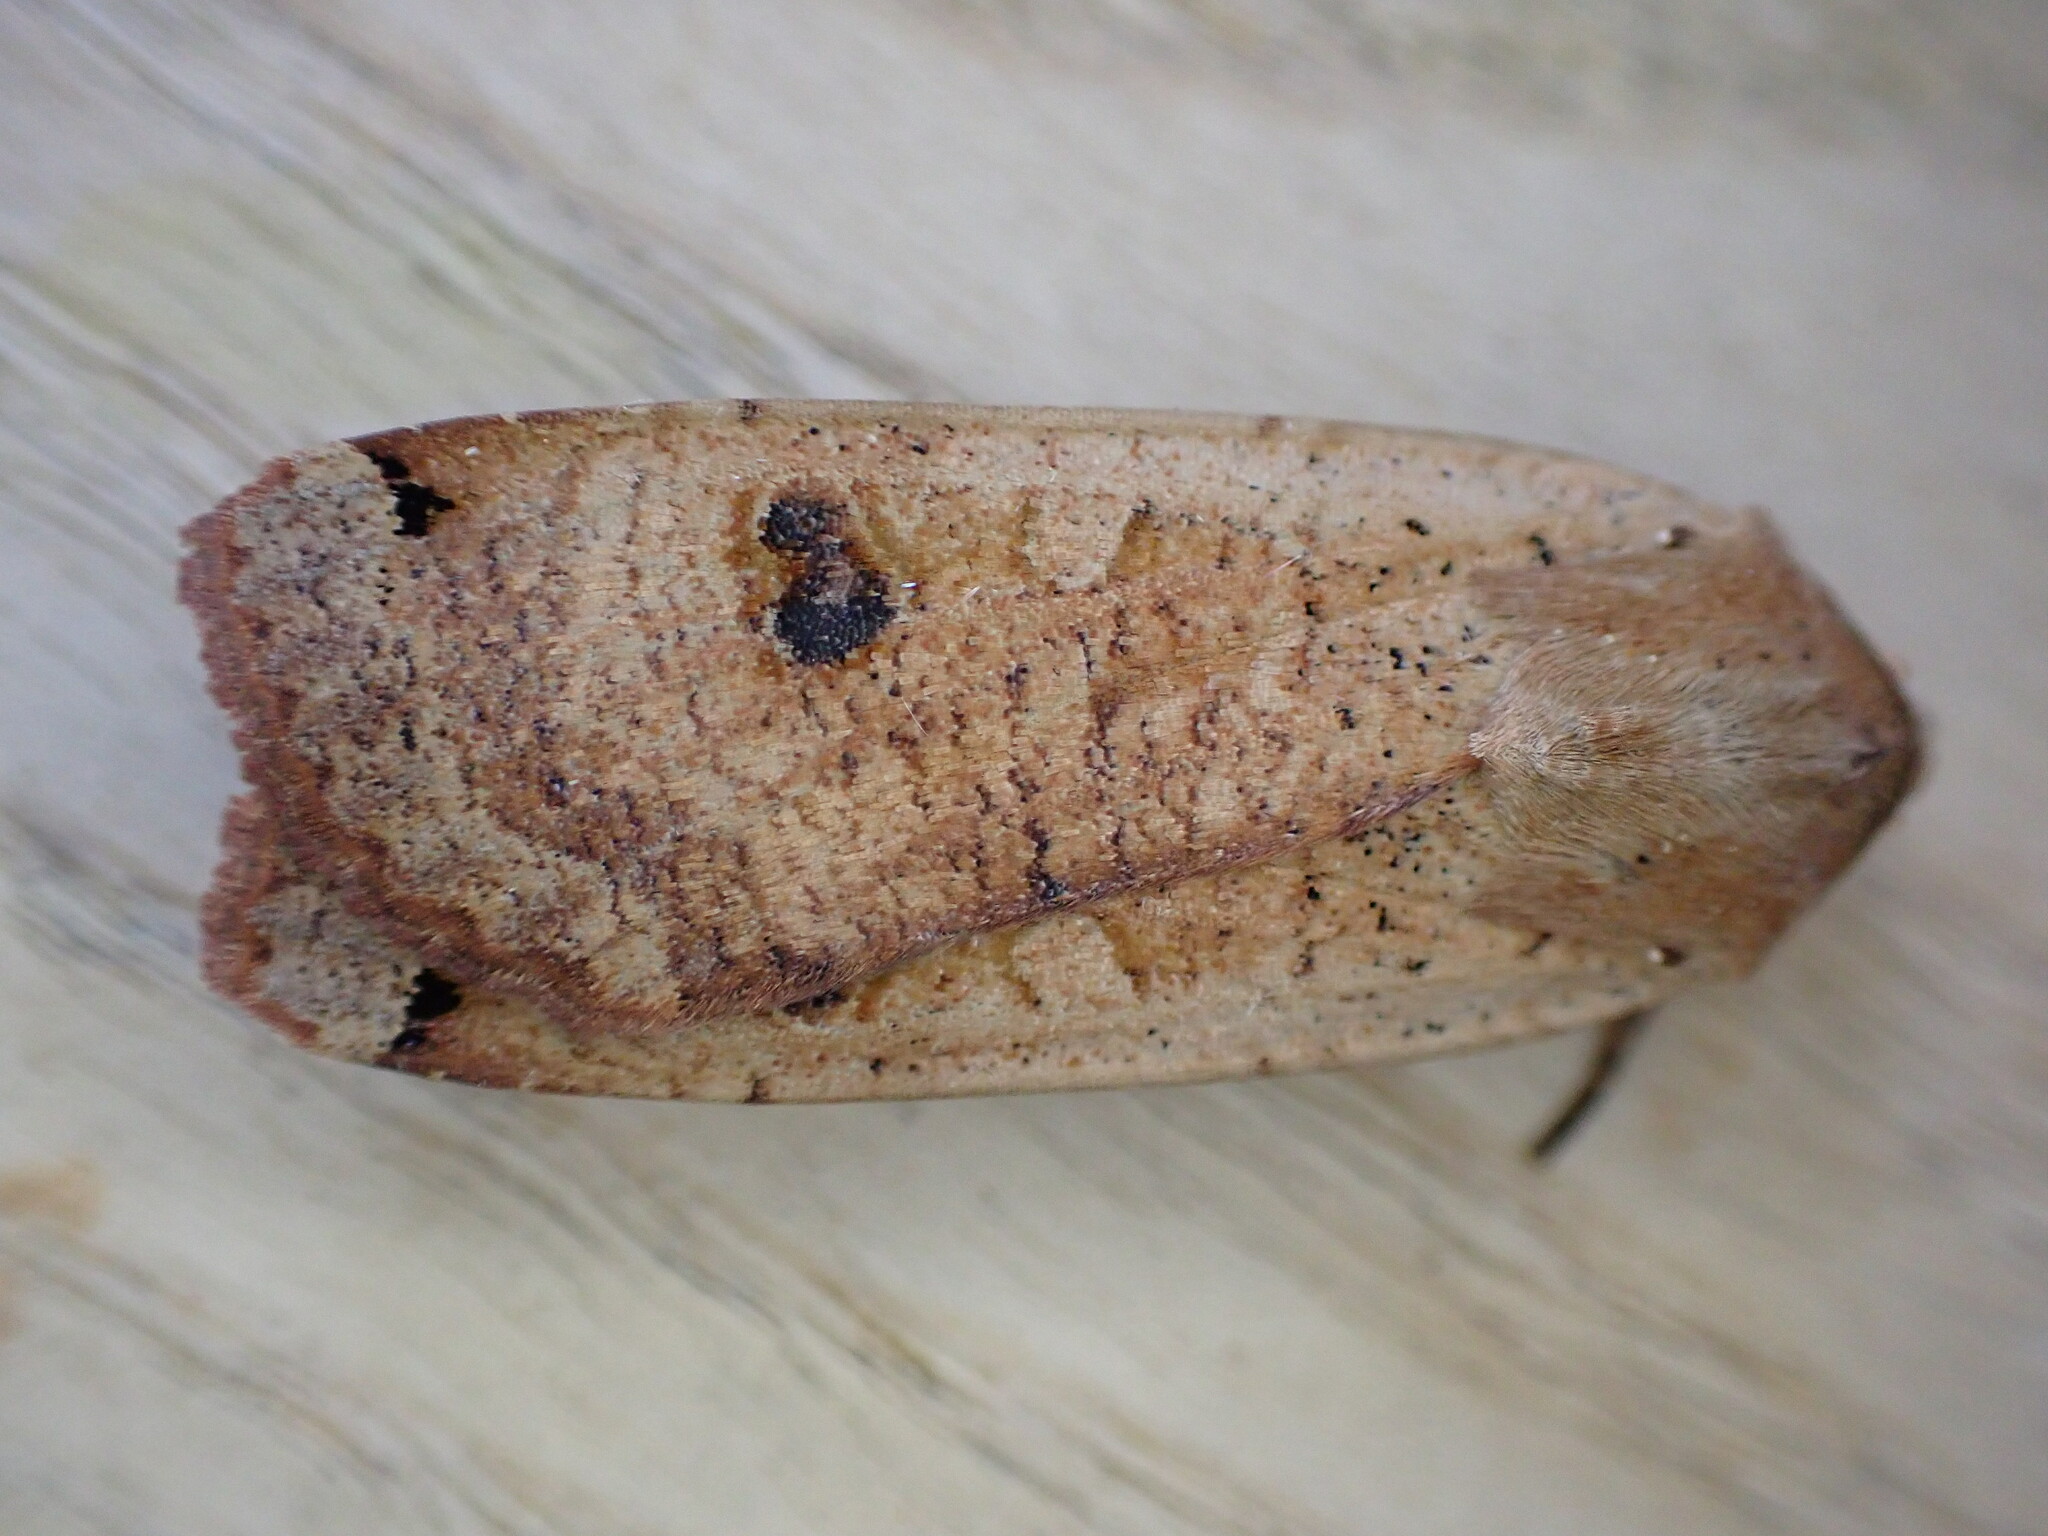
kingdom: Animalia
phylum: Arthropoda
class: Insecta
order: Lepidoptera
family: Noctuidae
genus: Noctua
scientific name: Noctua pronuba
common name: Large yellow underwing
